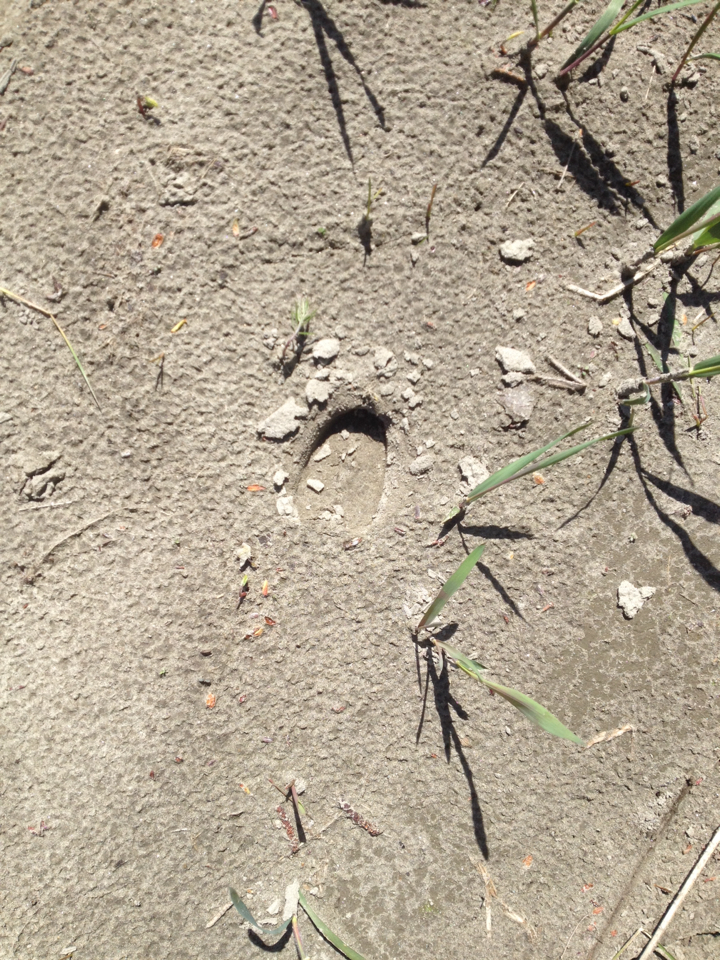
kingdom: Animalia
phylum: Chordata
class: Mammalia
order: Artiodactyla
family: Cervidae
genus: Odocoileus
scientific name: Odocoileus virginianus
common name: White-tailed deer
